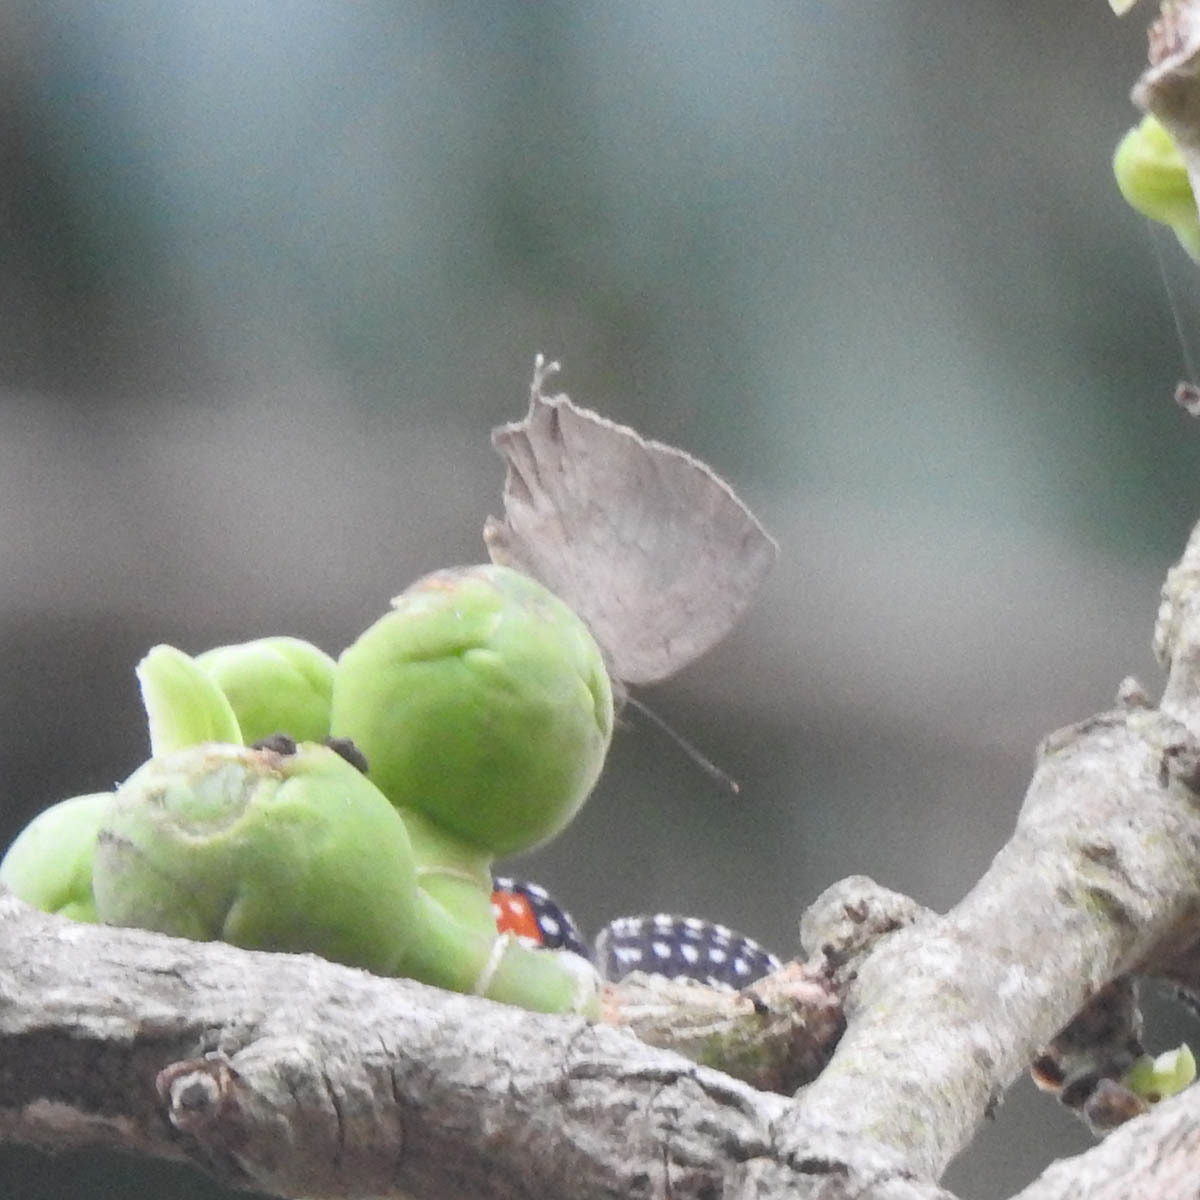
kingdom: Animalia
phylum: Arthropoda
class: Insecta
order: Lepidoptera
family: Lycaenidae
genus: Surendra
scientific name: Surendra quercetorum
